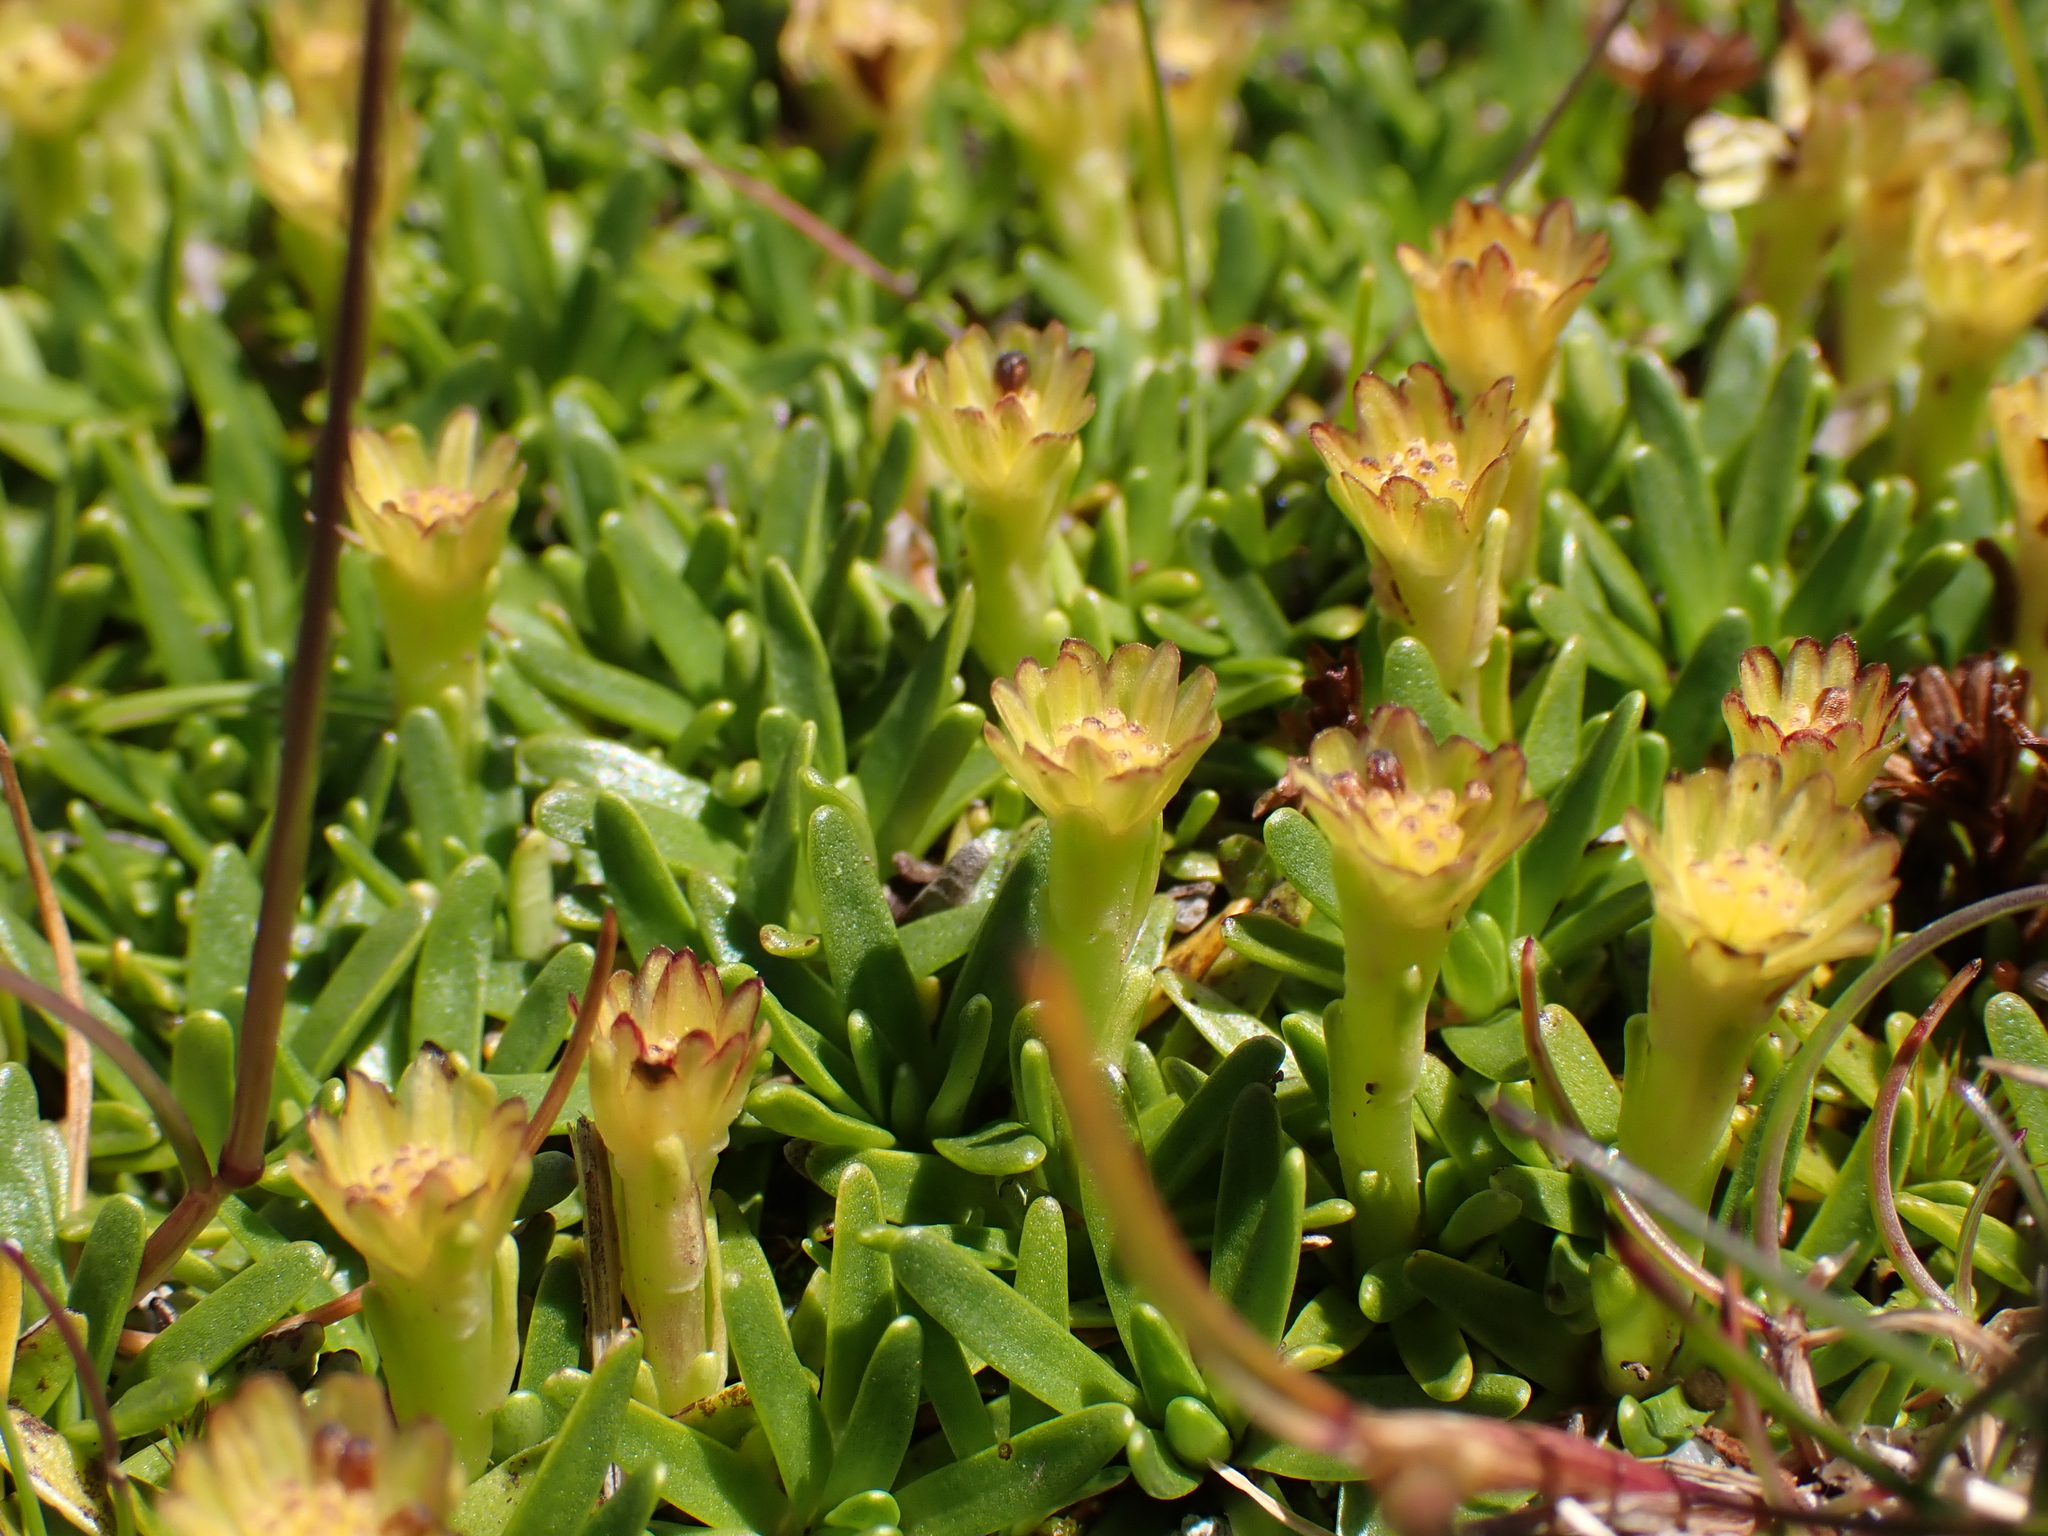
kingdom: Plantae
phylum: Tracheophyta
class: Magnoliopsida
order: Asterales
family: Asteraceae
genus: Abrotanella
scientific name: Abrotanella nivigena
